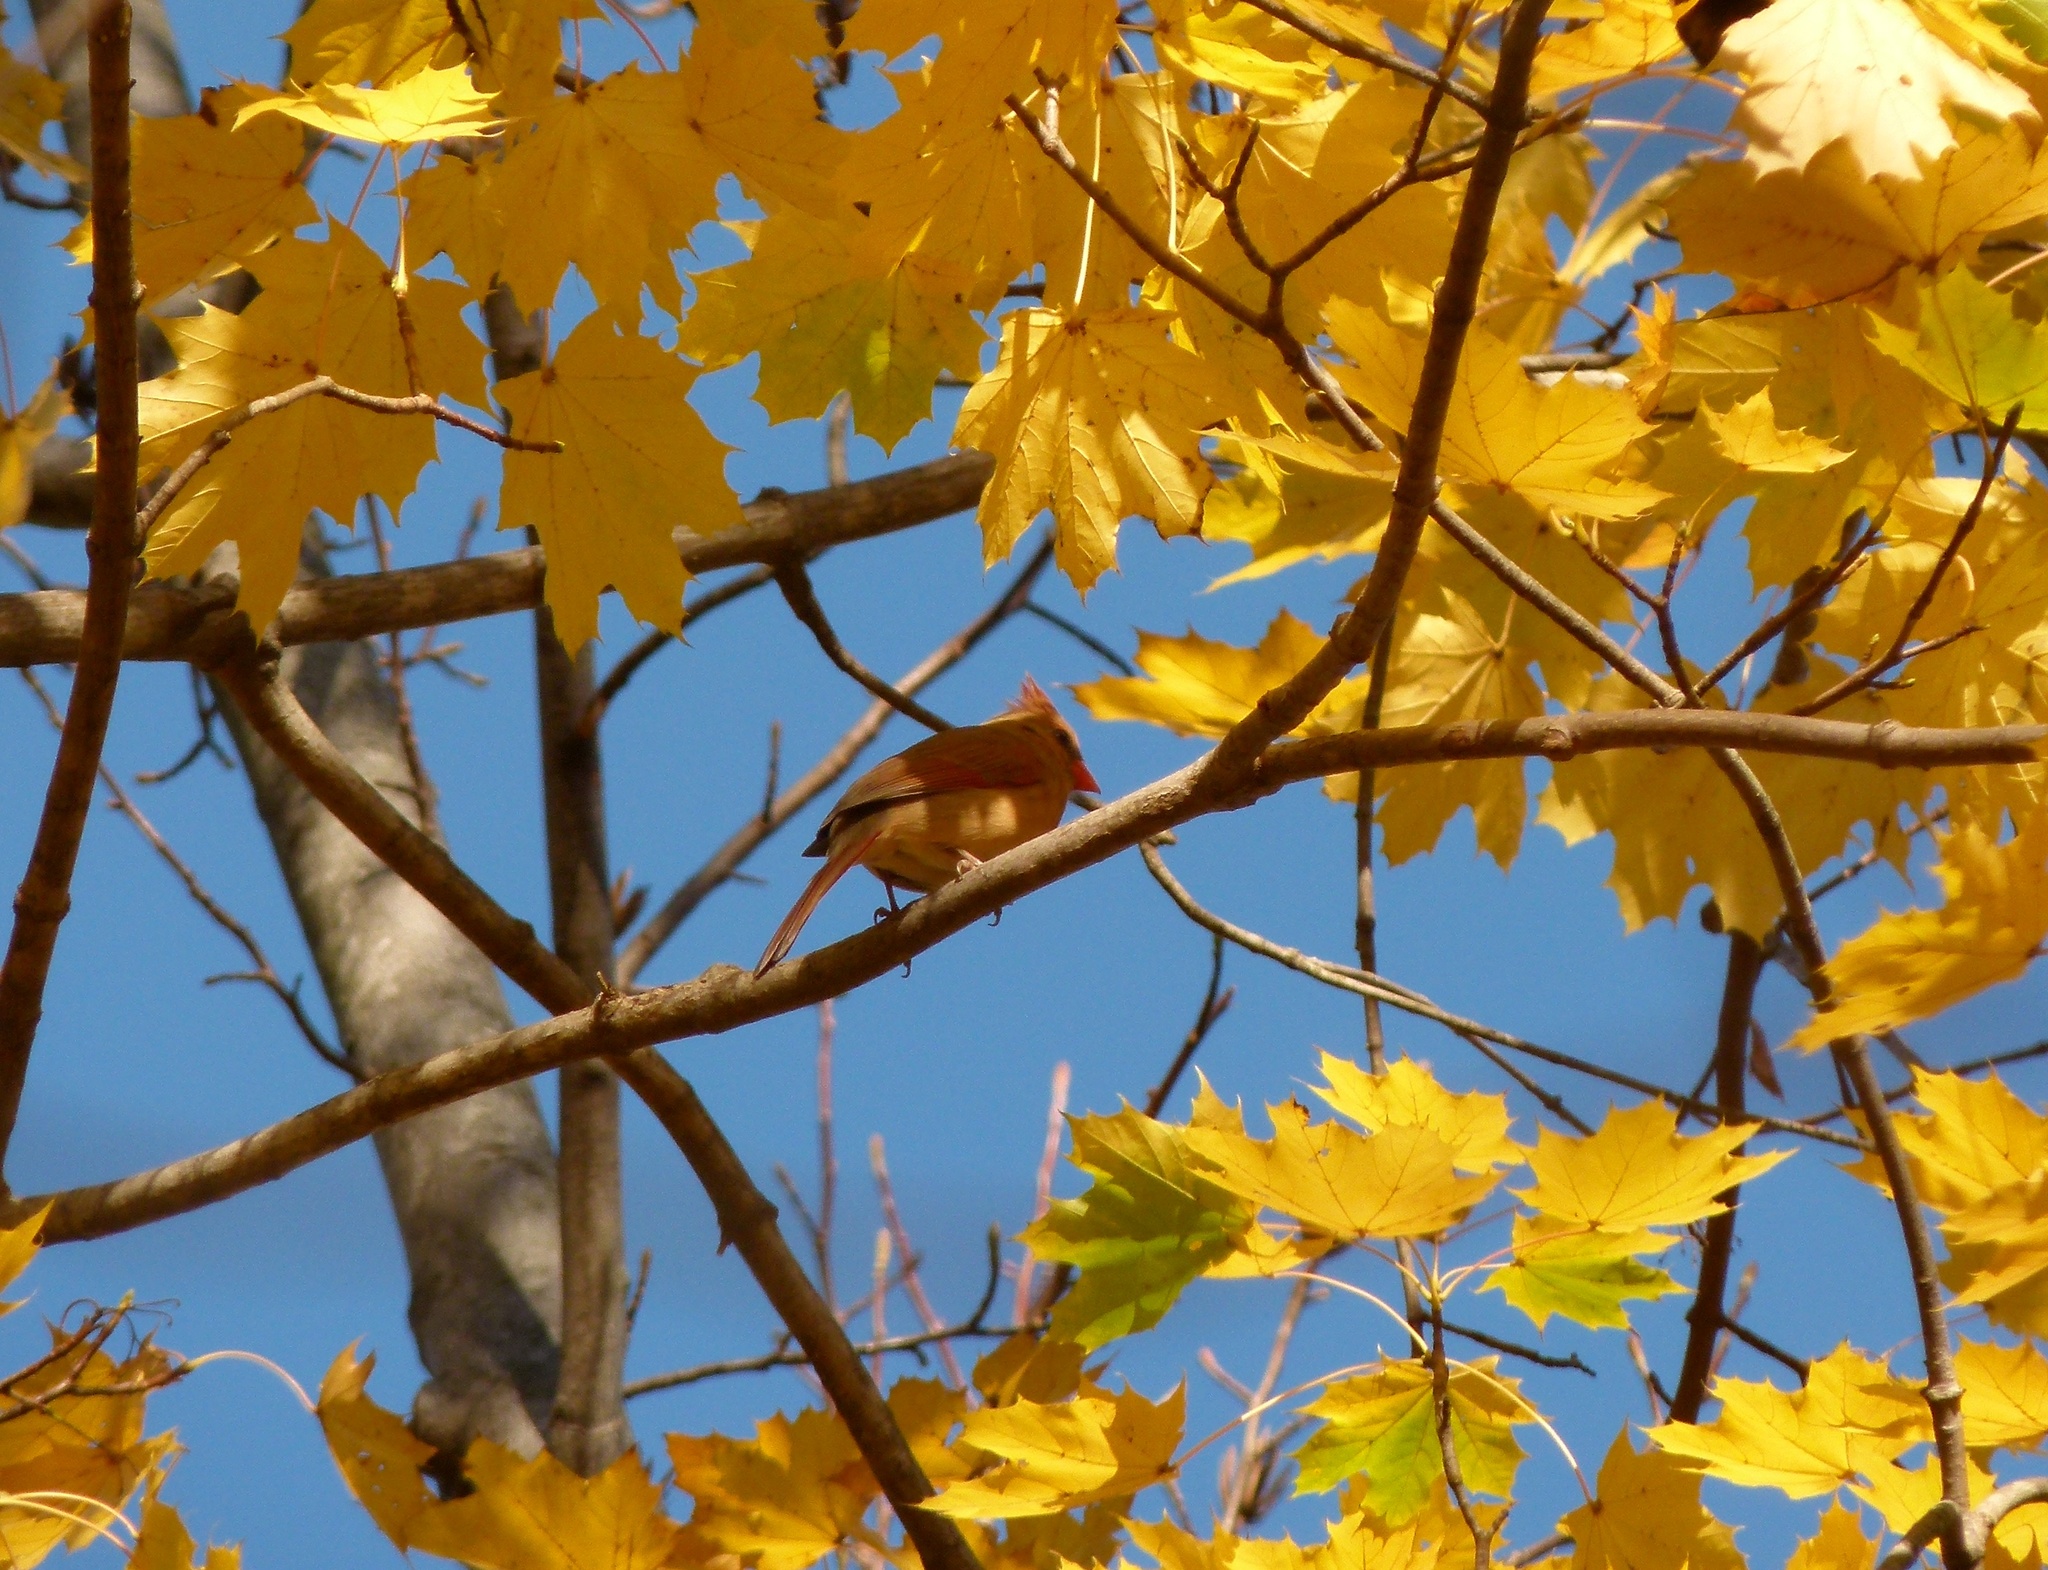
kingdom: Animalia
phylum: Chordata
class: Aves
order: Passeriformes
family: Cardinalidae
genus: Cardinalis
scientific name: Cardinalis cardinalis
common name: Northern cardinal
